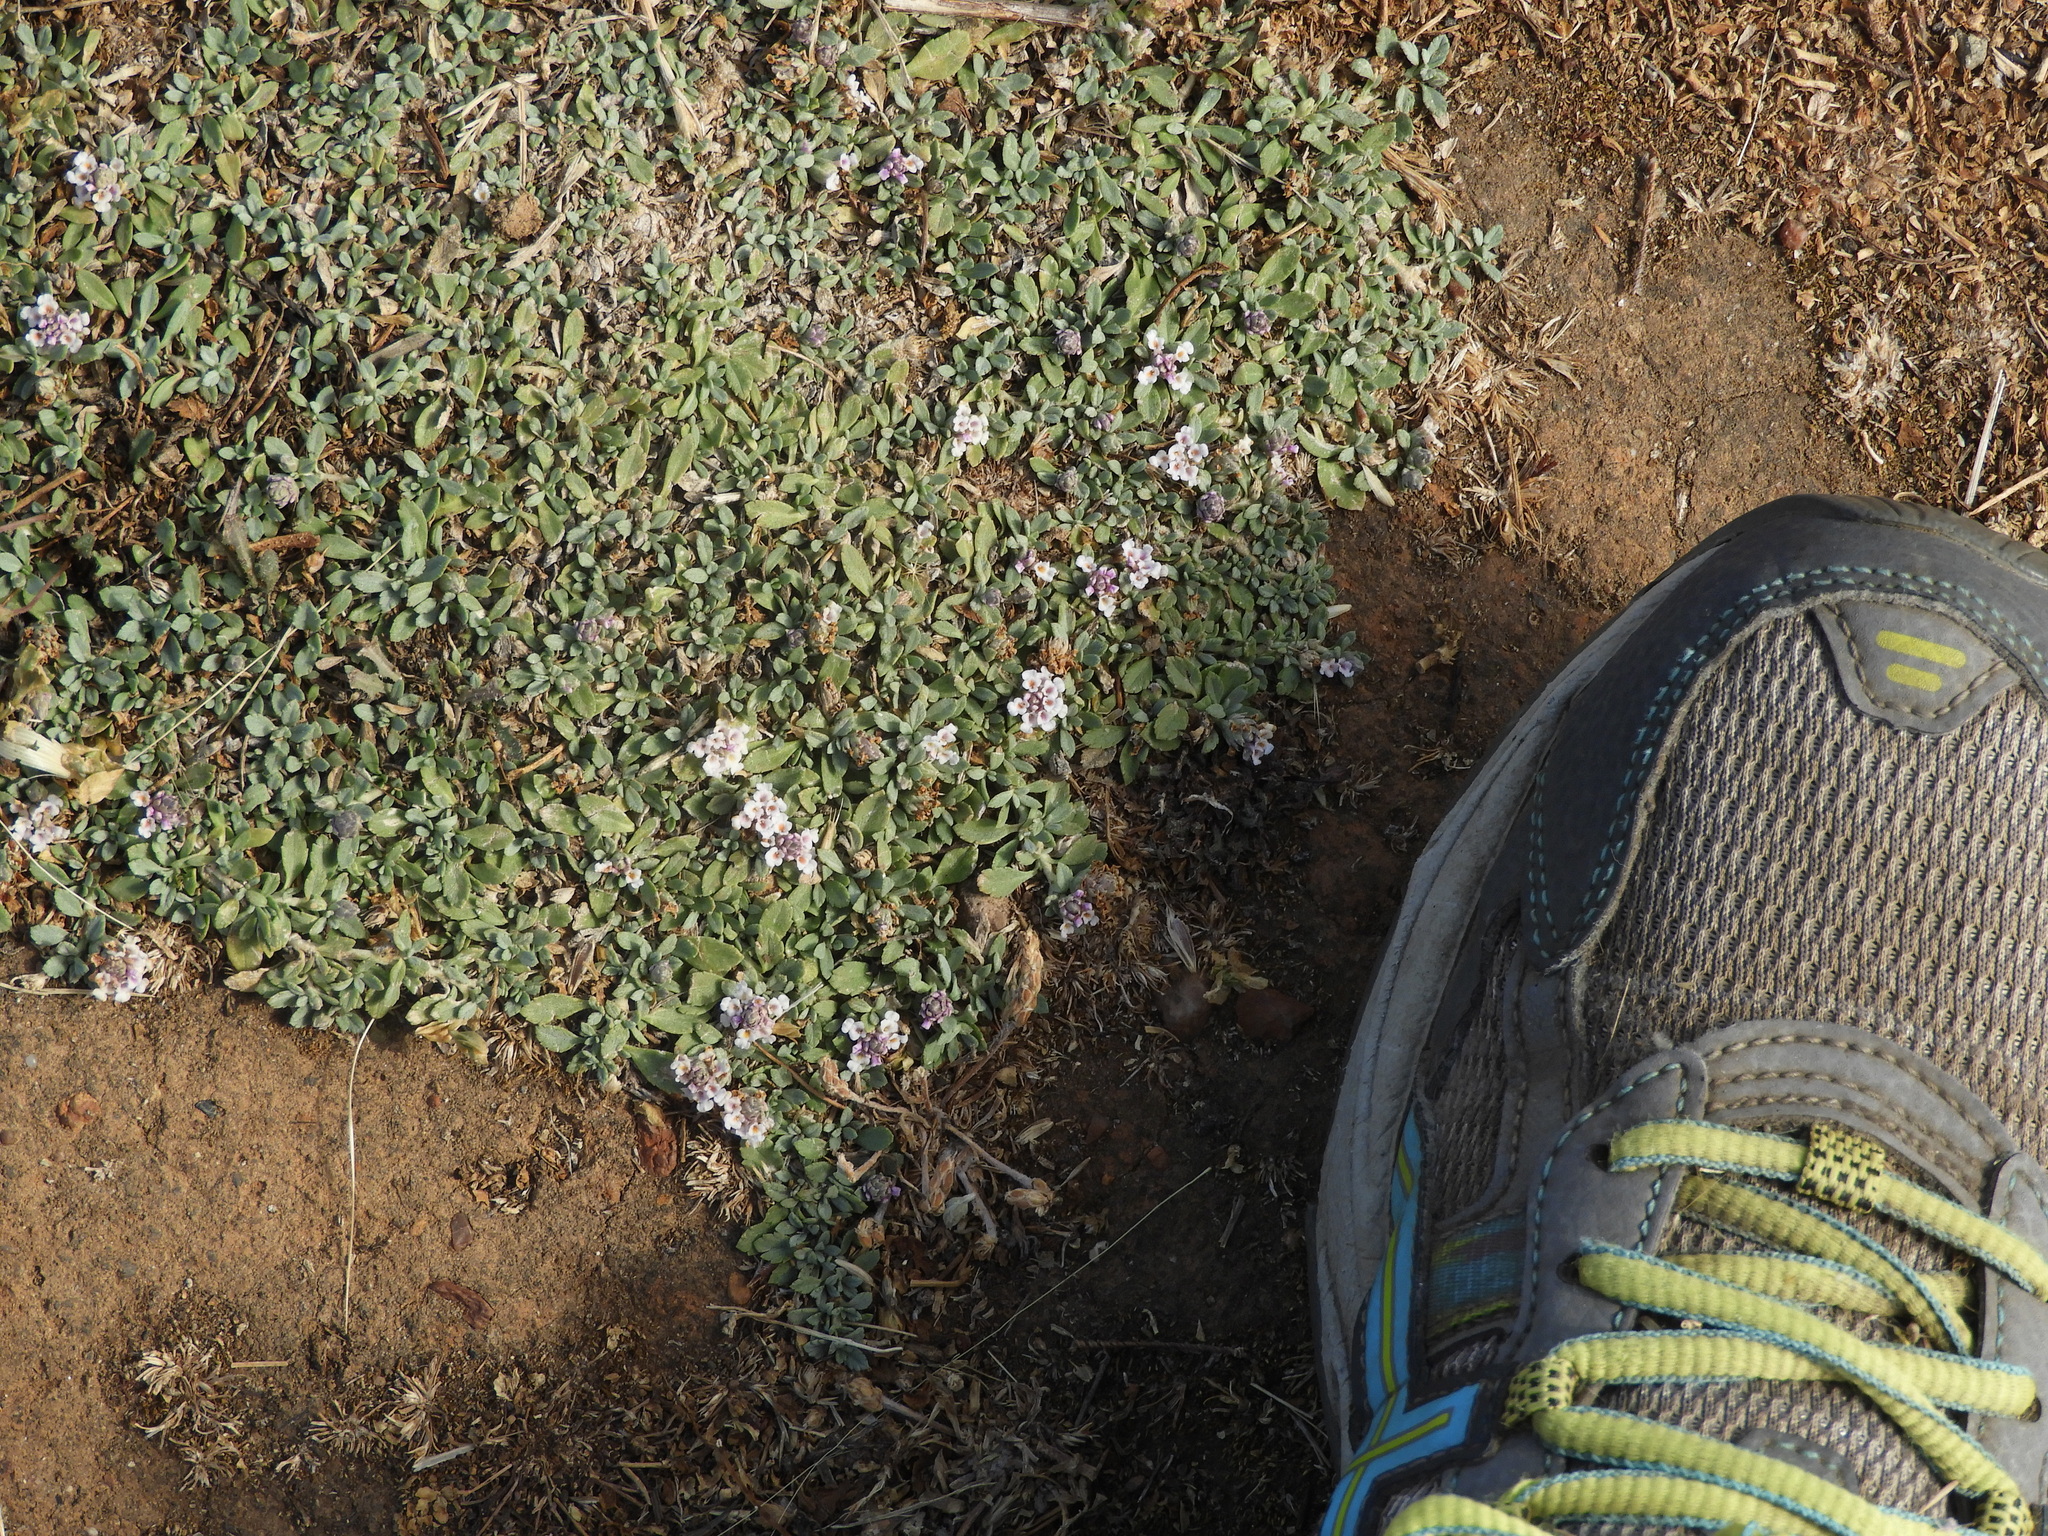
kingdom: Plantae
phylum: Tracheophyta
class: Magnoliopsida
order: Lamiales
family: Verbenaceae
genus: Phyla
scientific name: Phyla nodiflora
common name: Frogfruit
